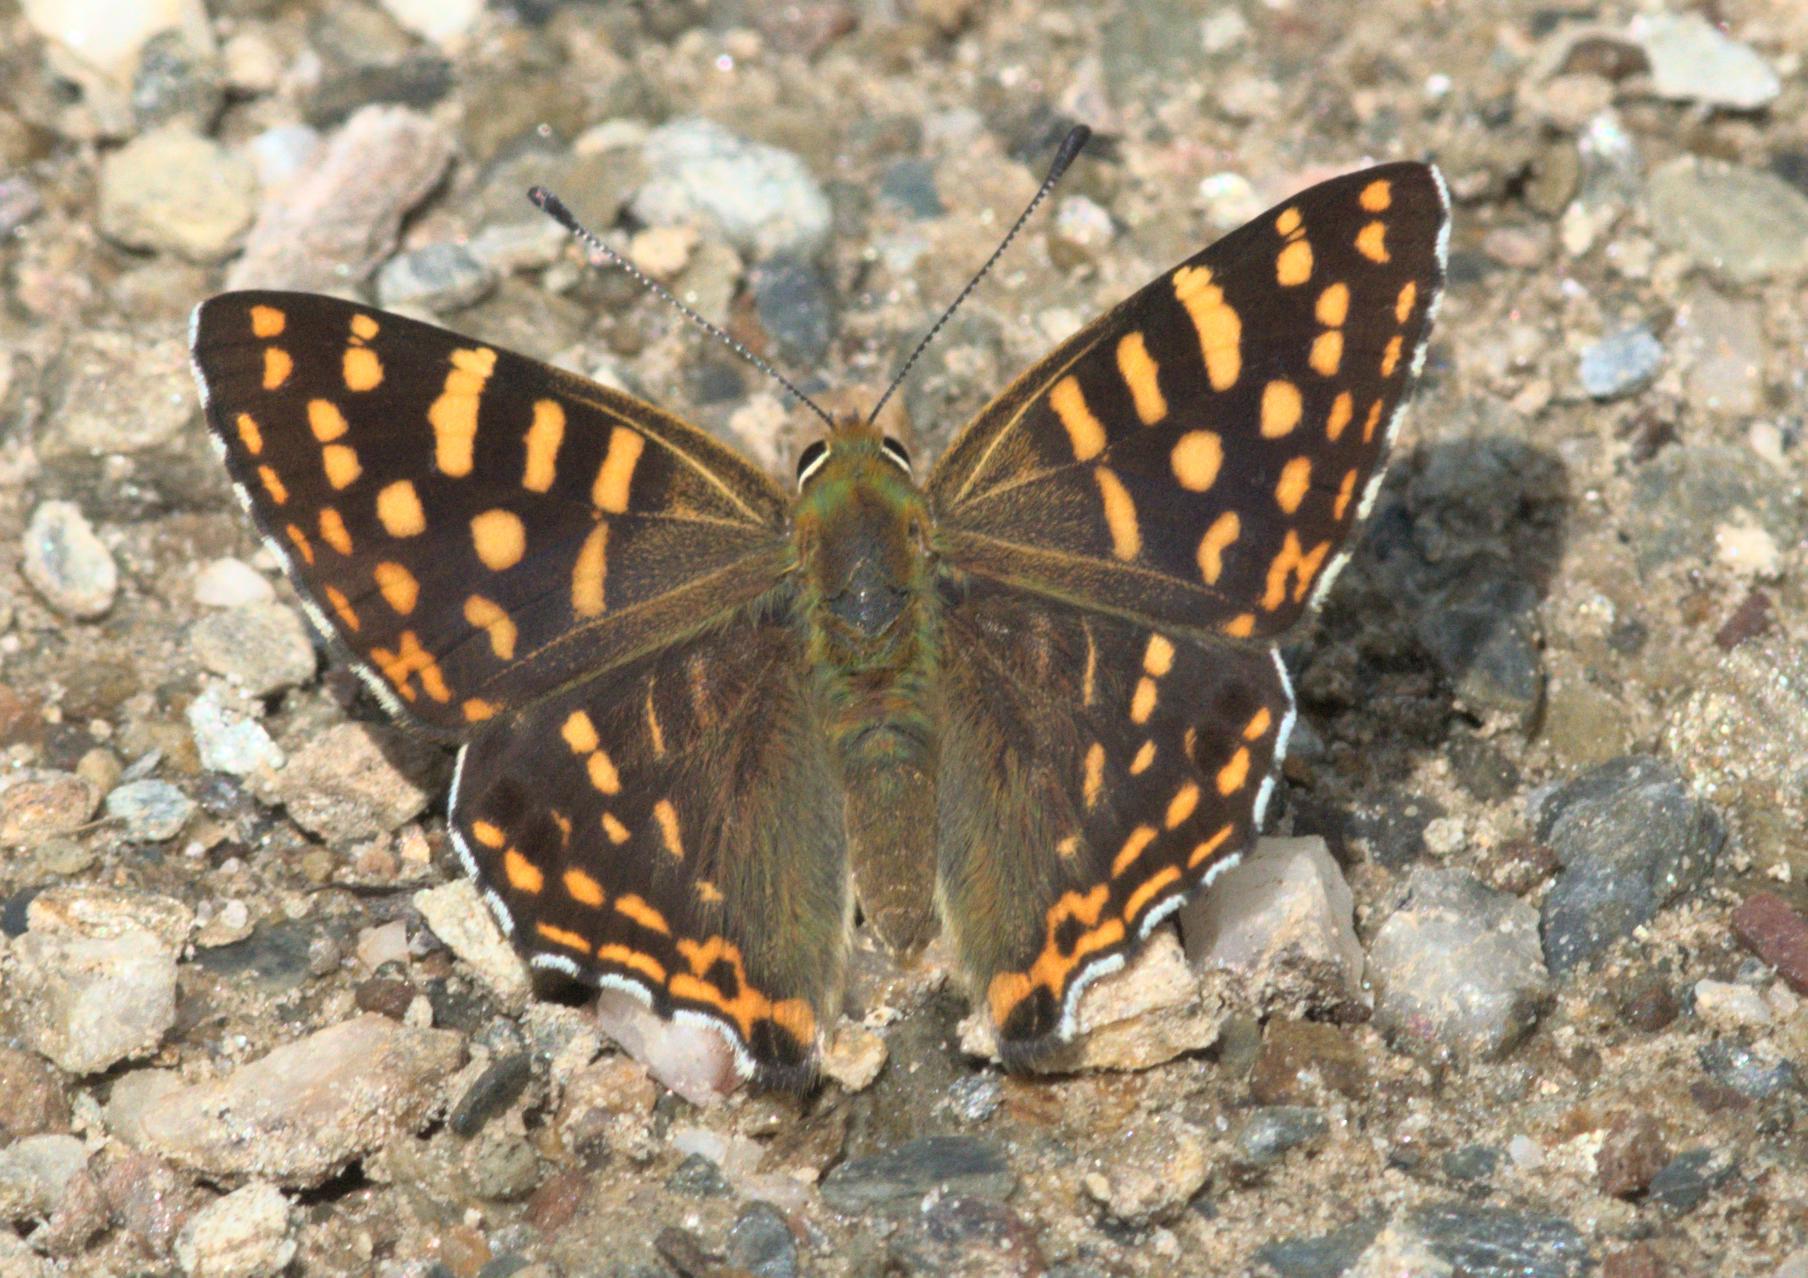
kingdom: Animalia
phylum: Arthropoda
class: Insecta
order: Lepidoptera
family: Lycaenidae
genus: Dodona
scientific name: Dodona durga
